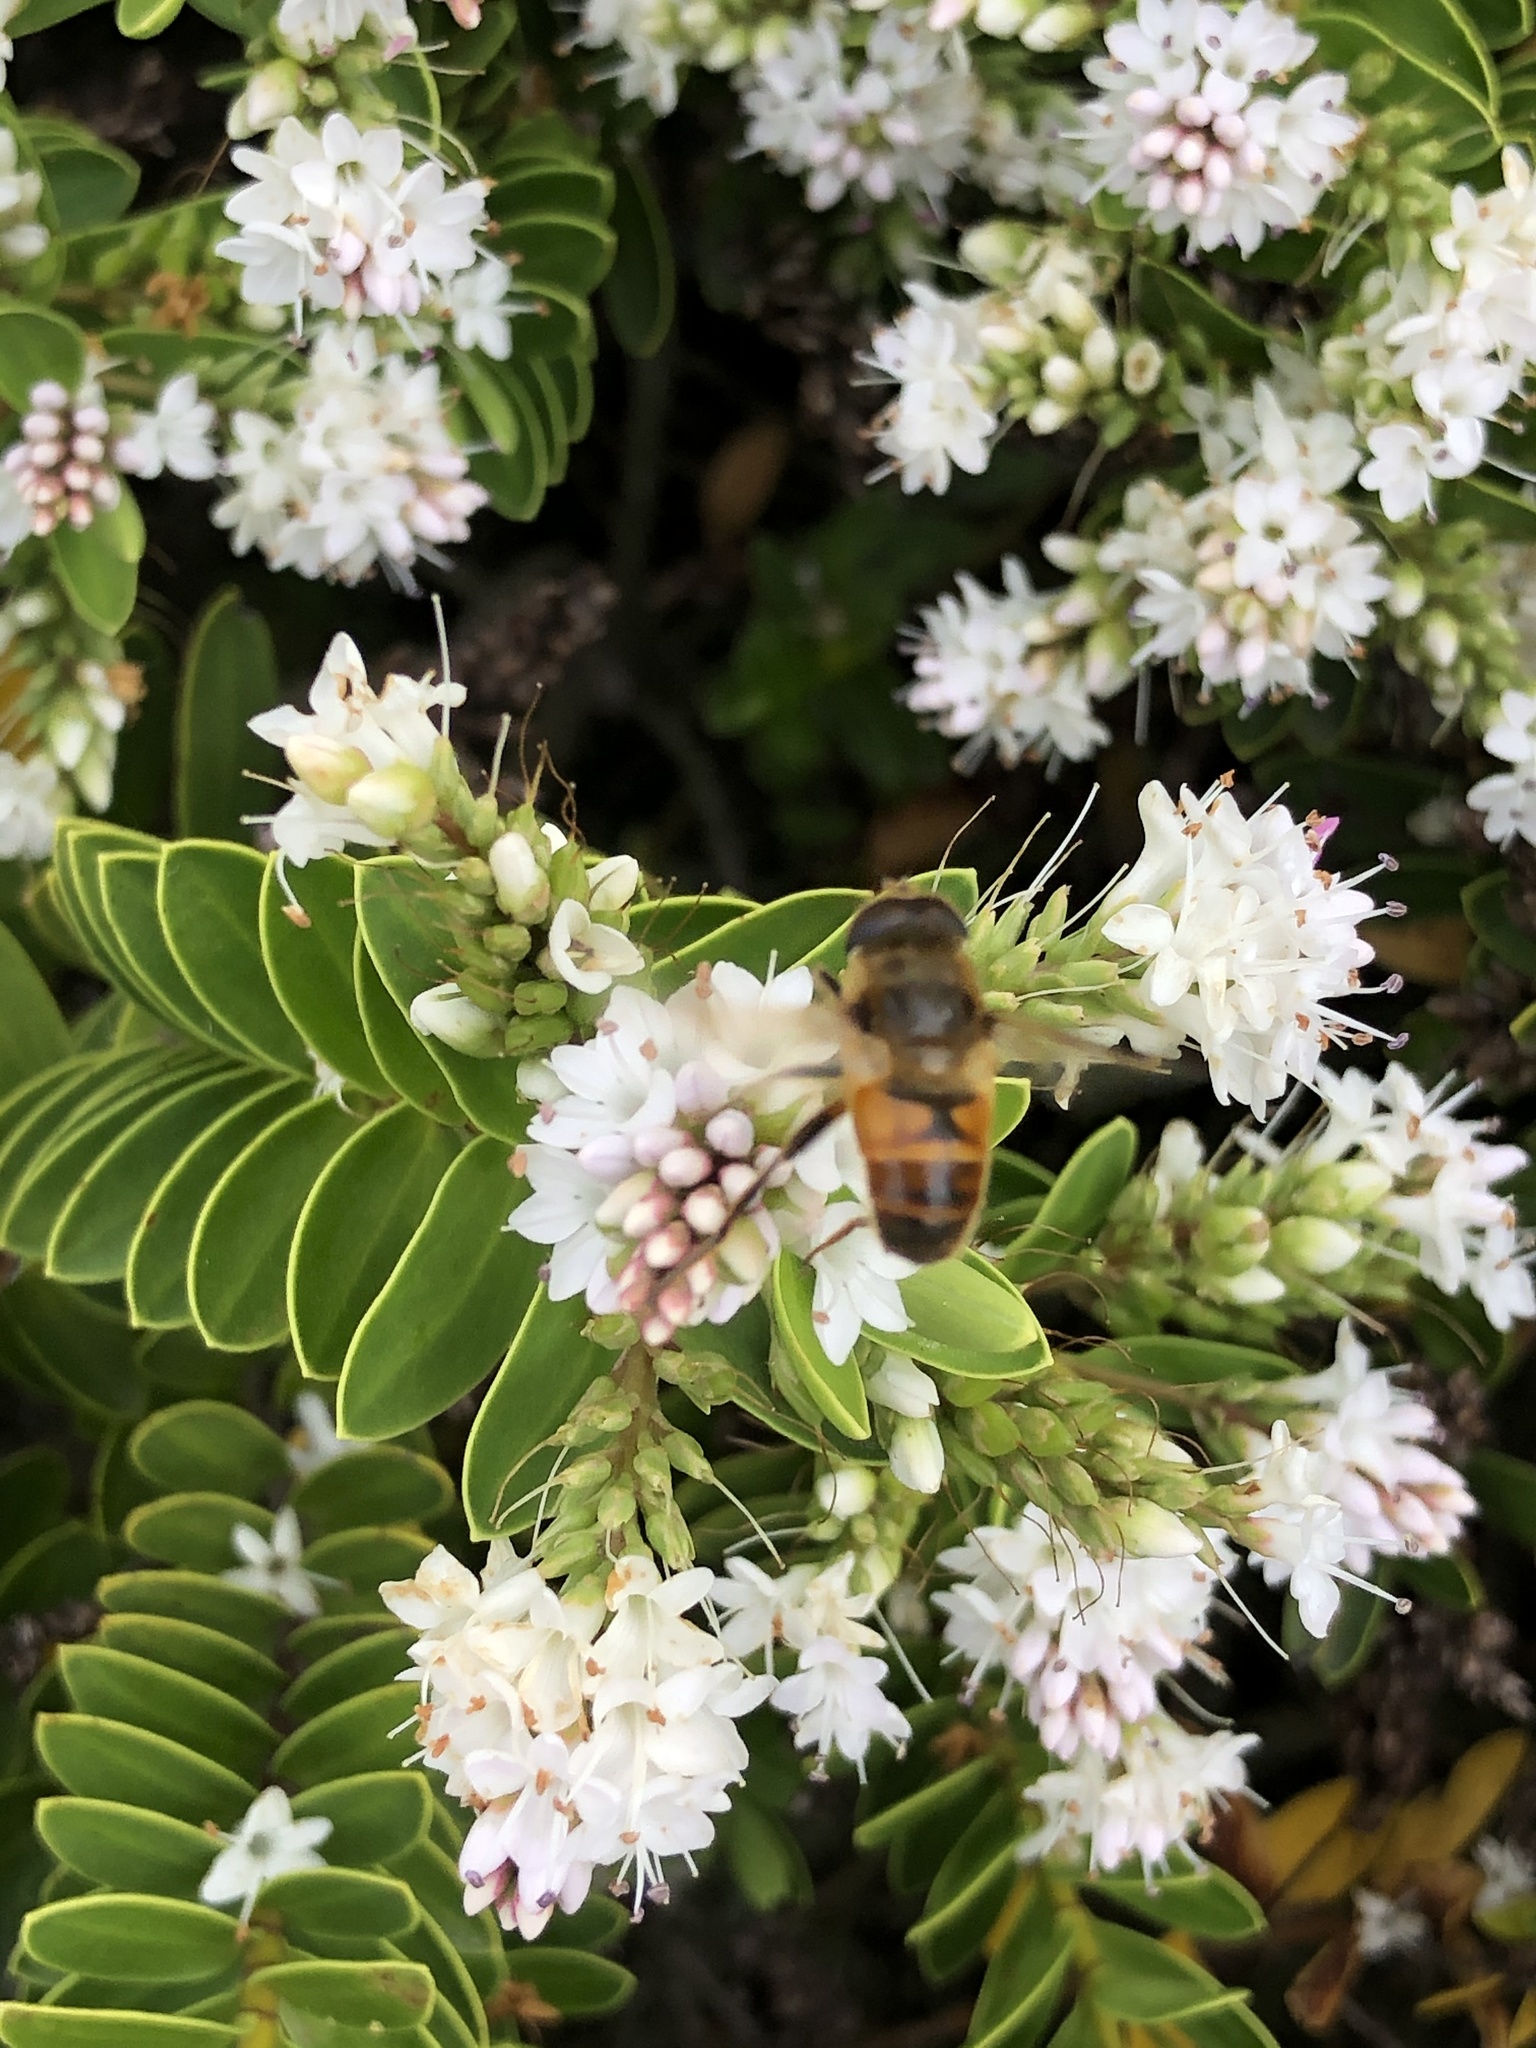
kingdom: Animalia
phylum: Arthropoda
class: Insecta
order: Diptera
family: Syrphidae
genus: Eristalis
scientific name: Eristalis tenax
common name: Drone fly
